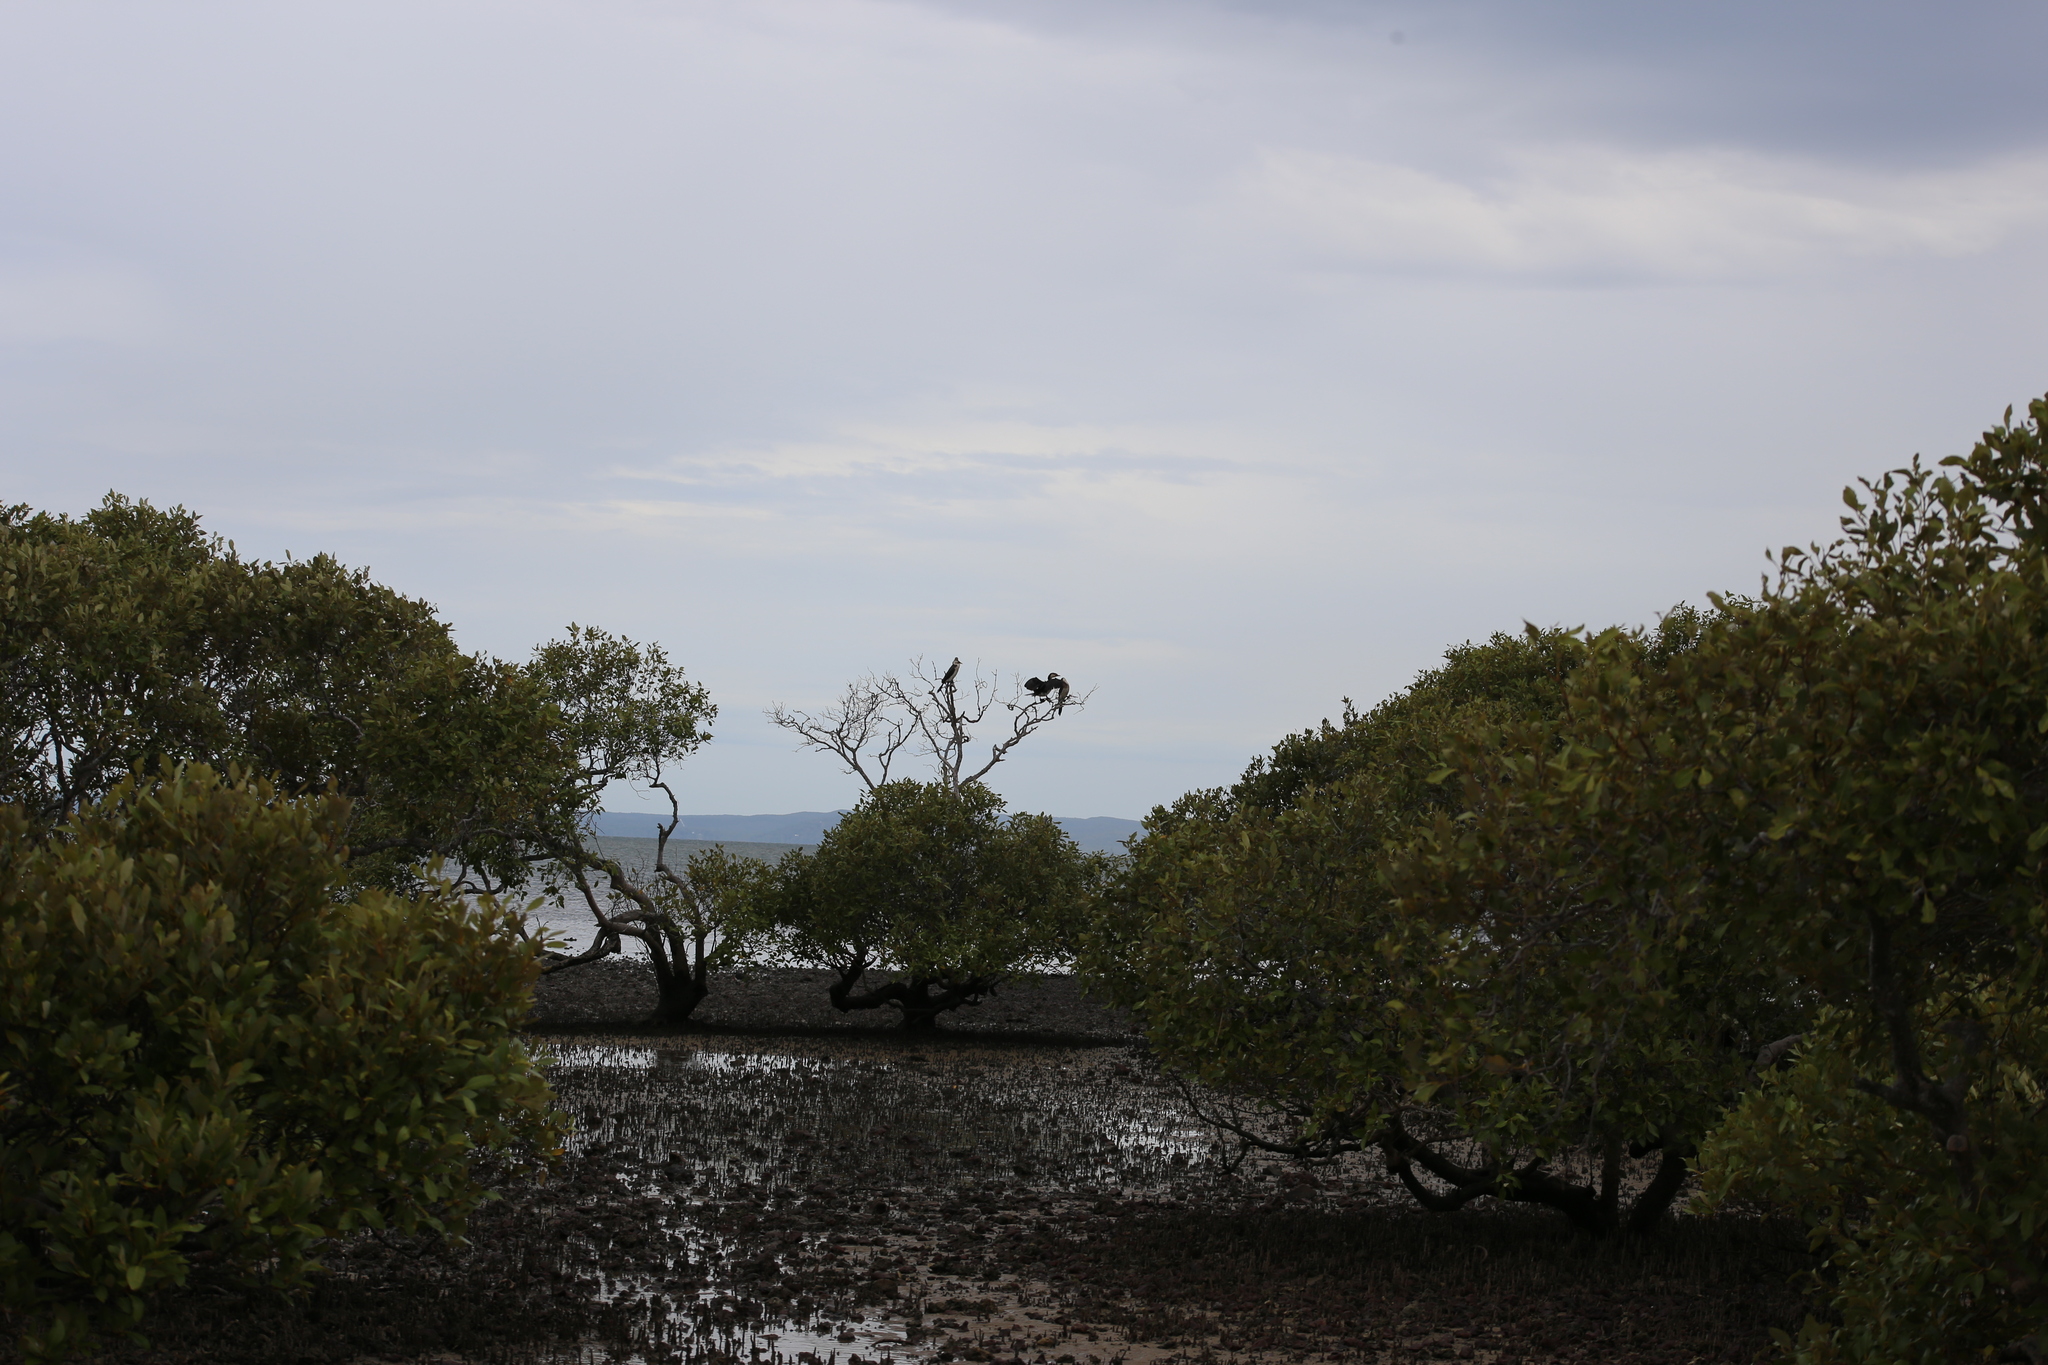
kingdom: Animalia
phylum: Chordata
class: Aves
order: Suliformes
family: Phalacrocoracidae
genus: Microcarbo
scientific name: Microcarbo melanoleucos
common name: Little pied cormorant
